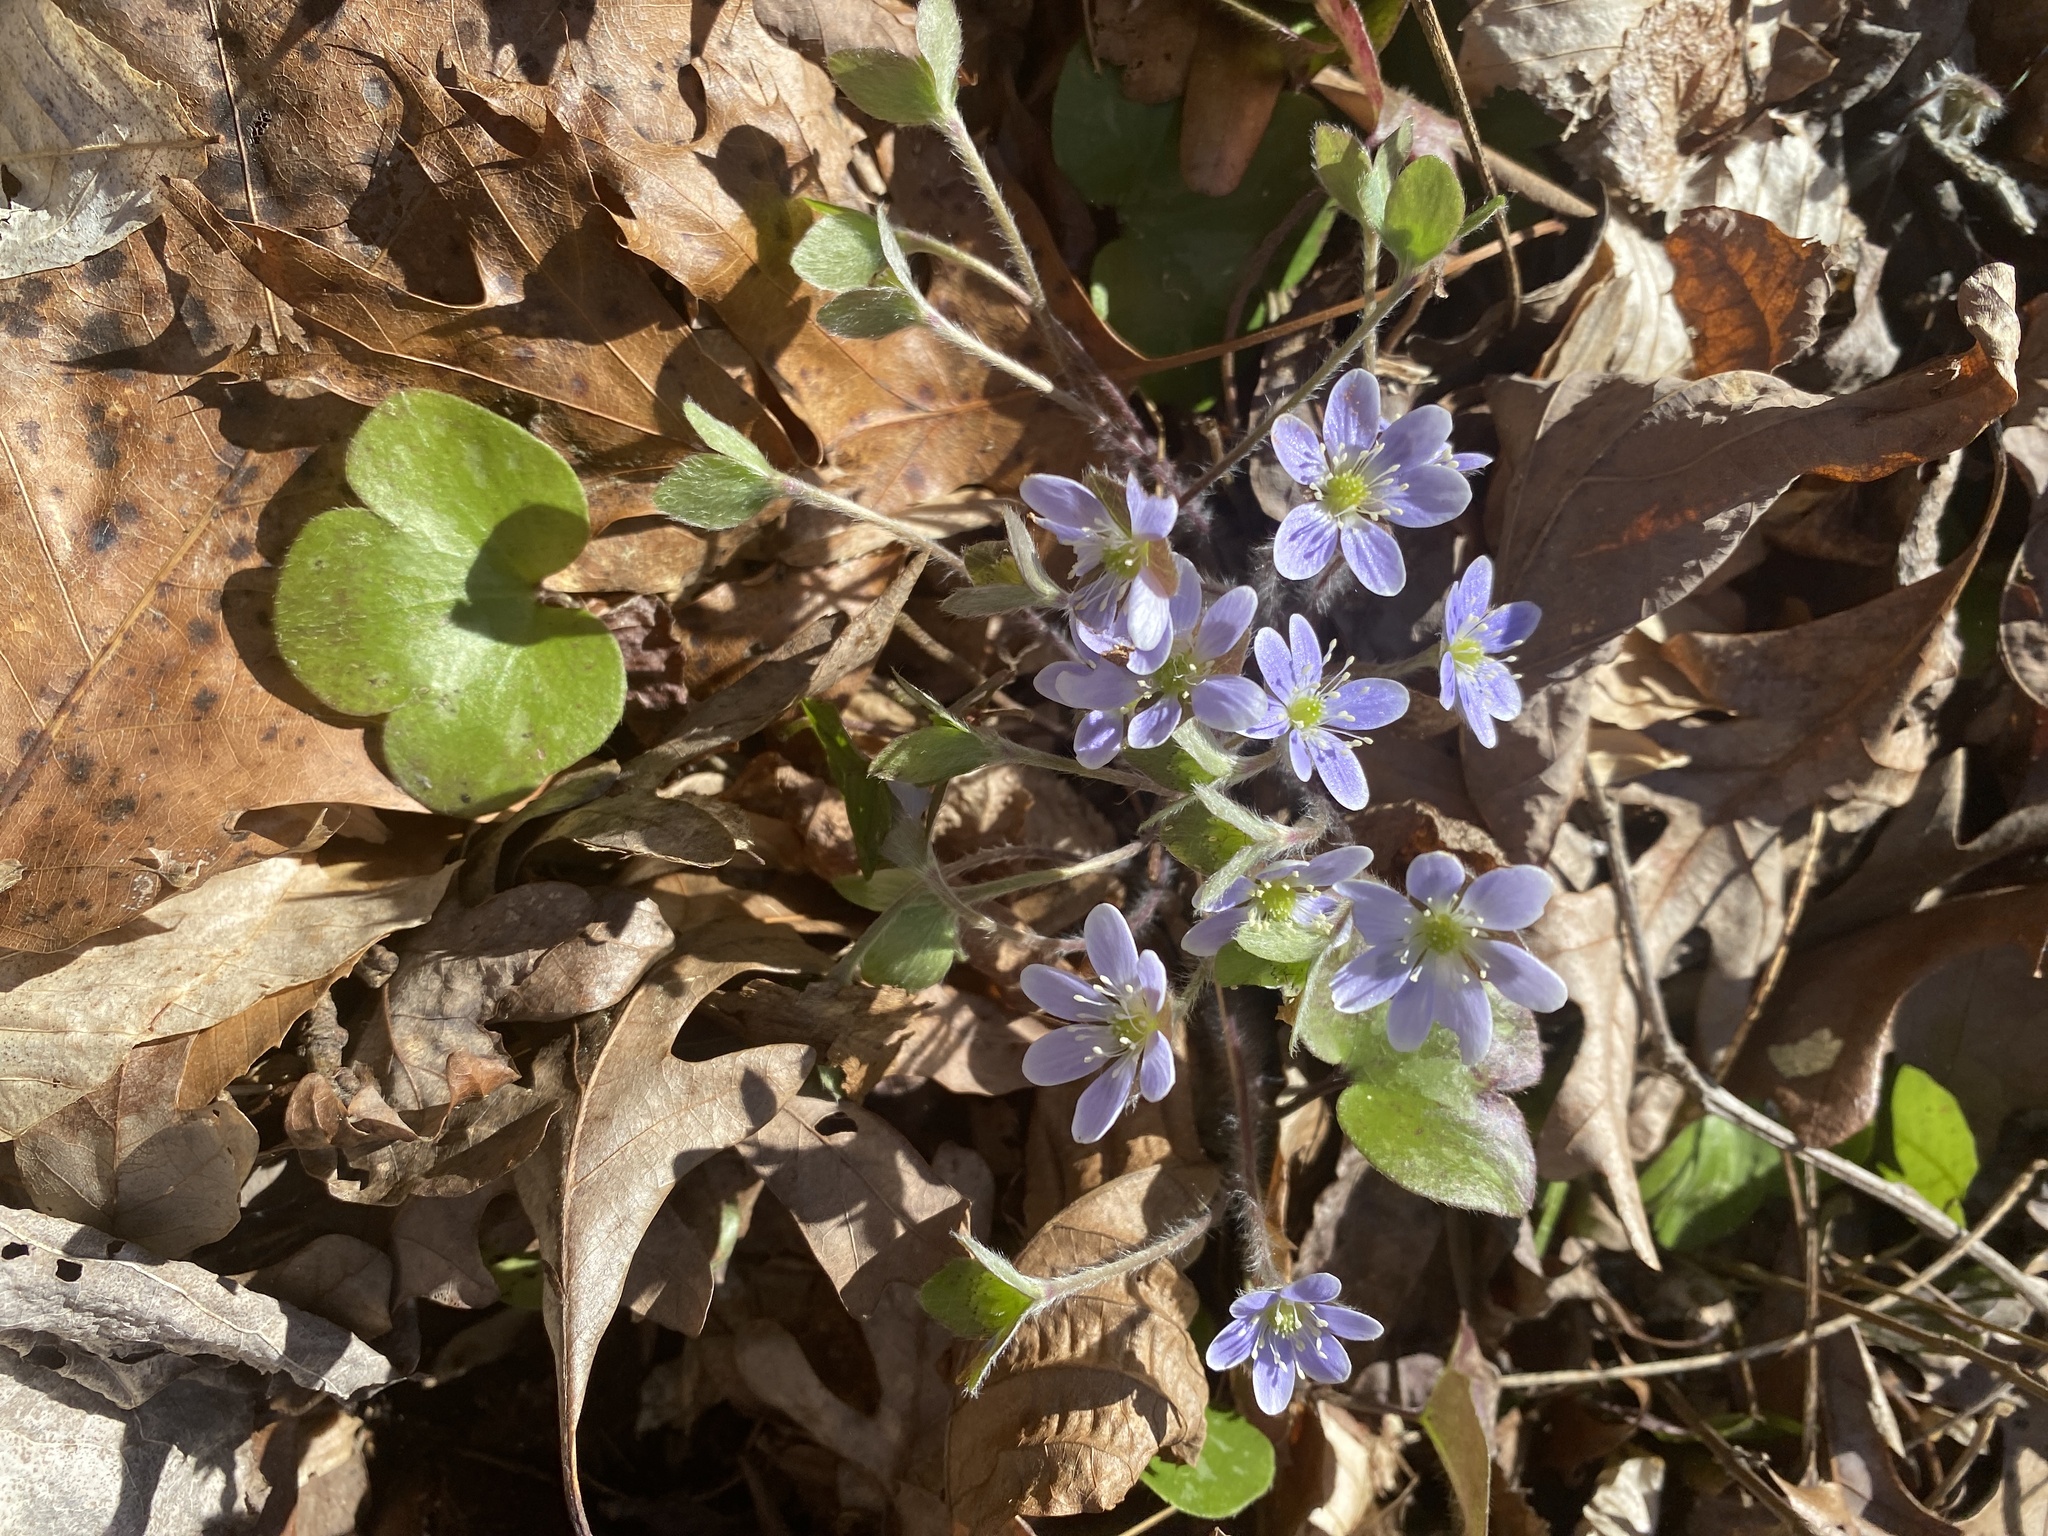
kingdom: Plantae
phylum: Tracheophyta
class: Magnoliopsida
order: Ranunculales
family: Ranunculaceae
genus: Hepatica
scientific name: Hepatica americana
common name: American hepatica
